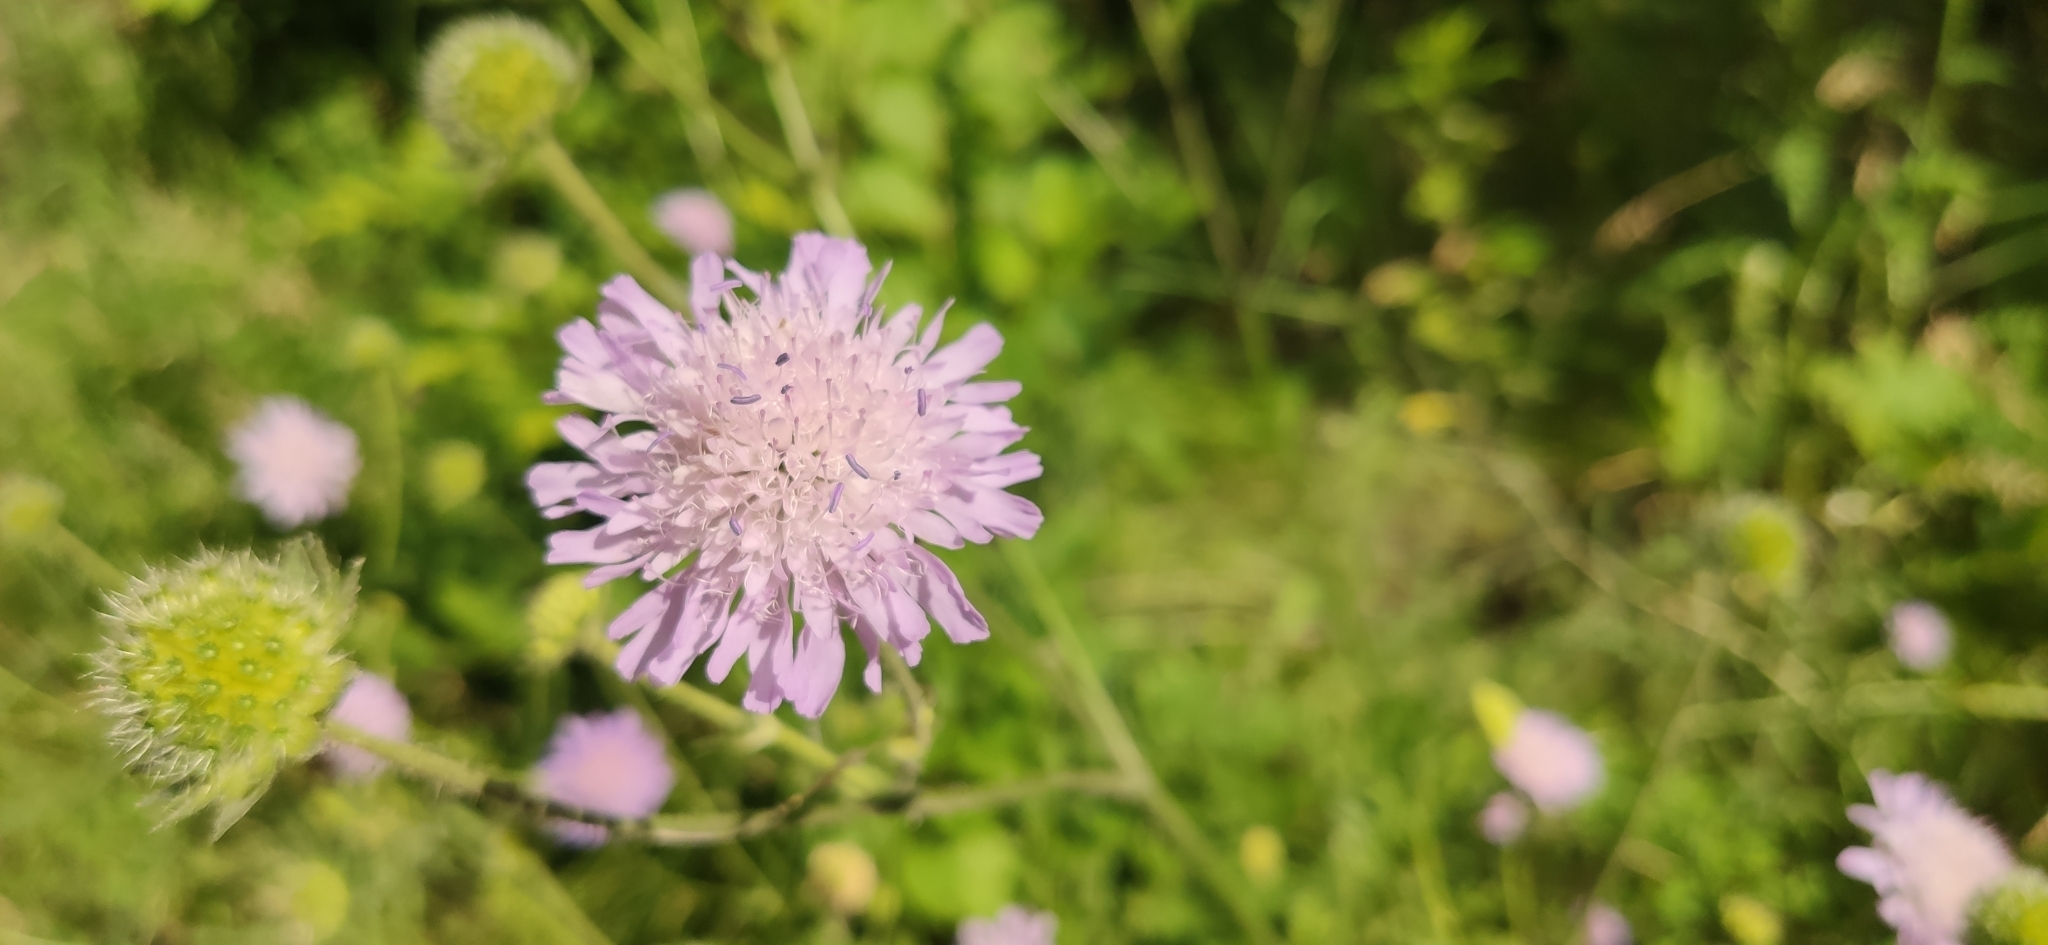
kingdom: Plantae
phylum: Tracheophyta
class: Magnoliopsida
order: Dipsacales
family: Caprifoliaceae
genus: Knautia
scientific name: Knautia arvensis
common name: Field scabiosa
